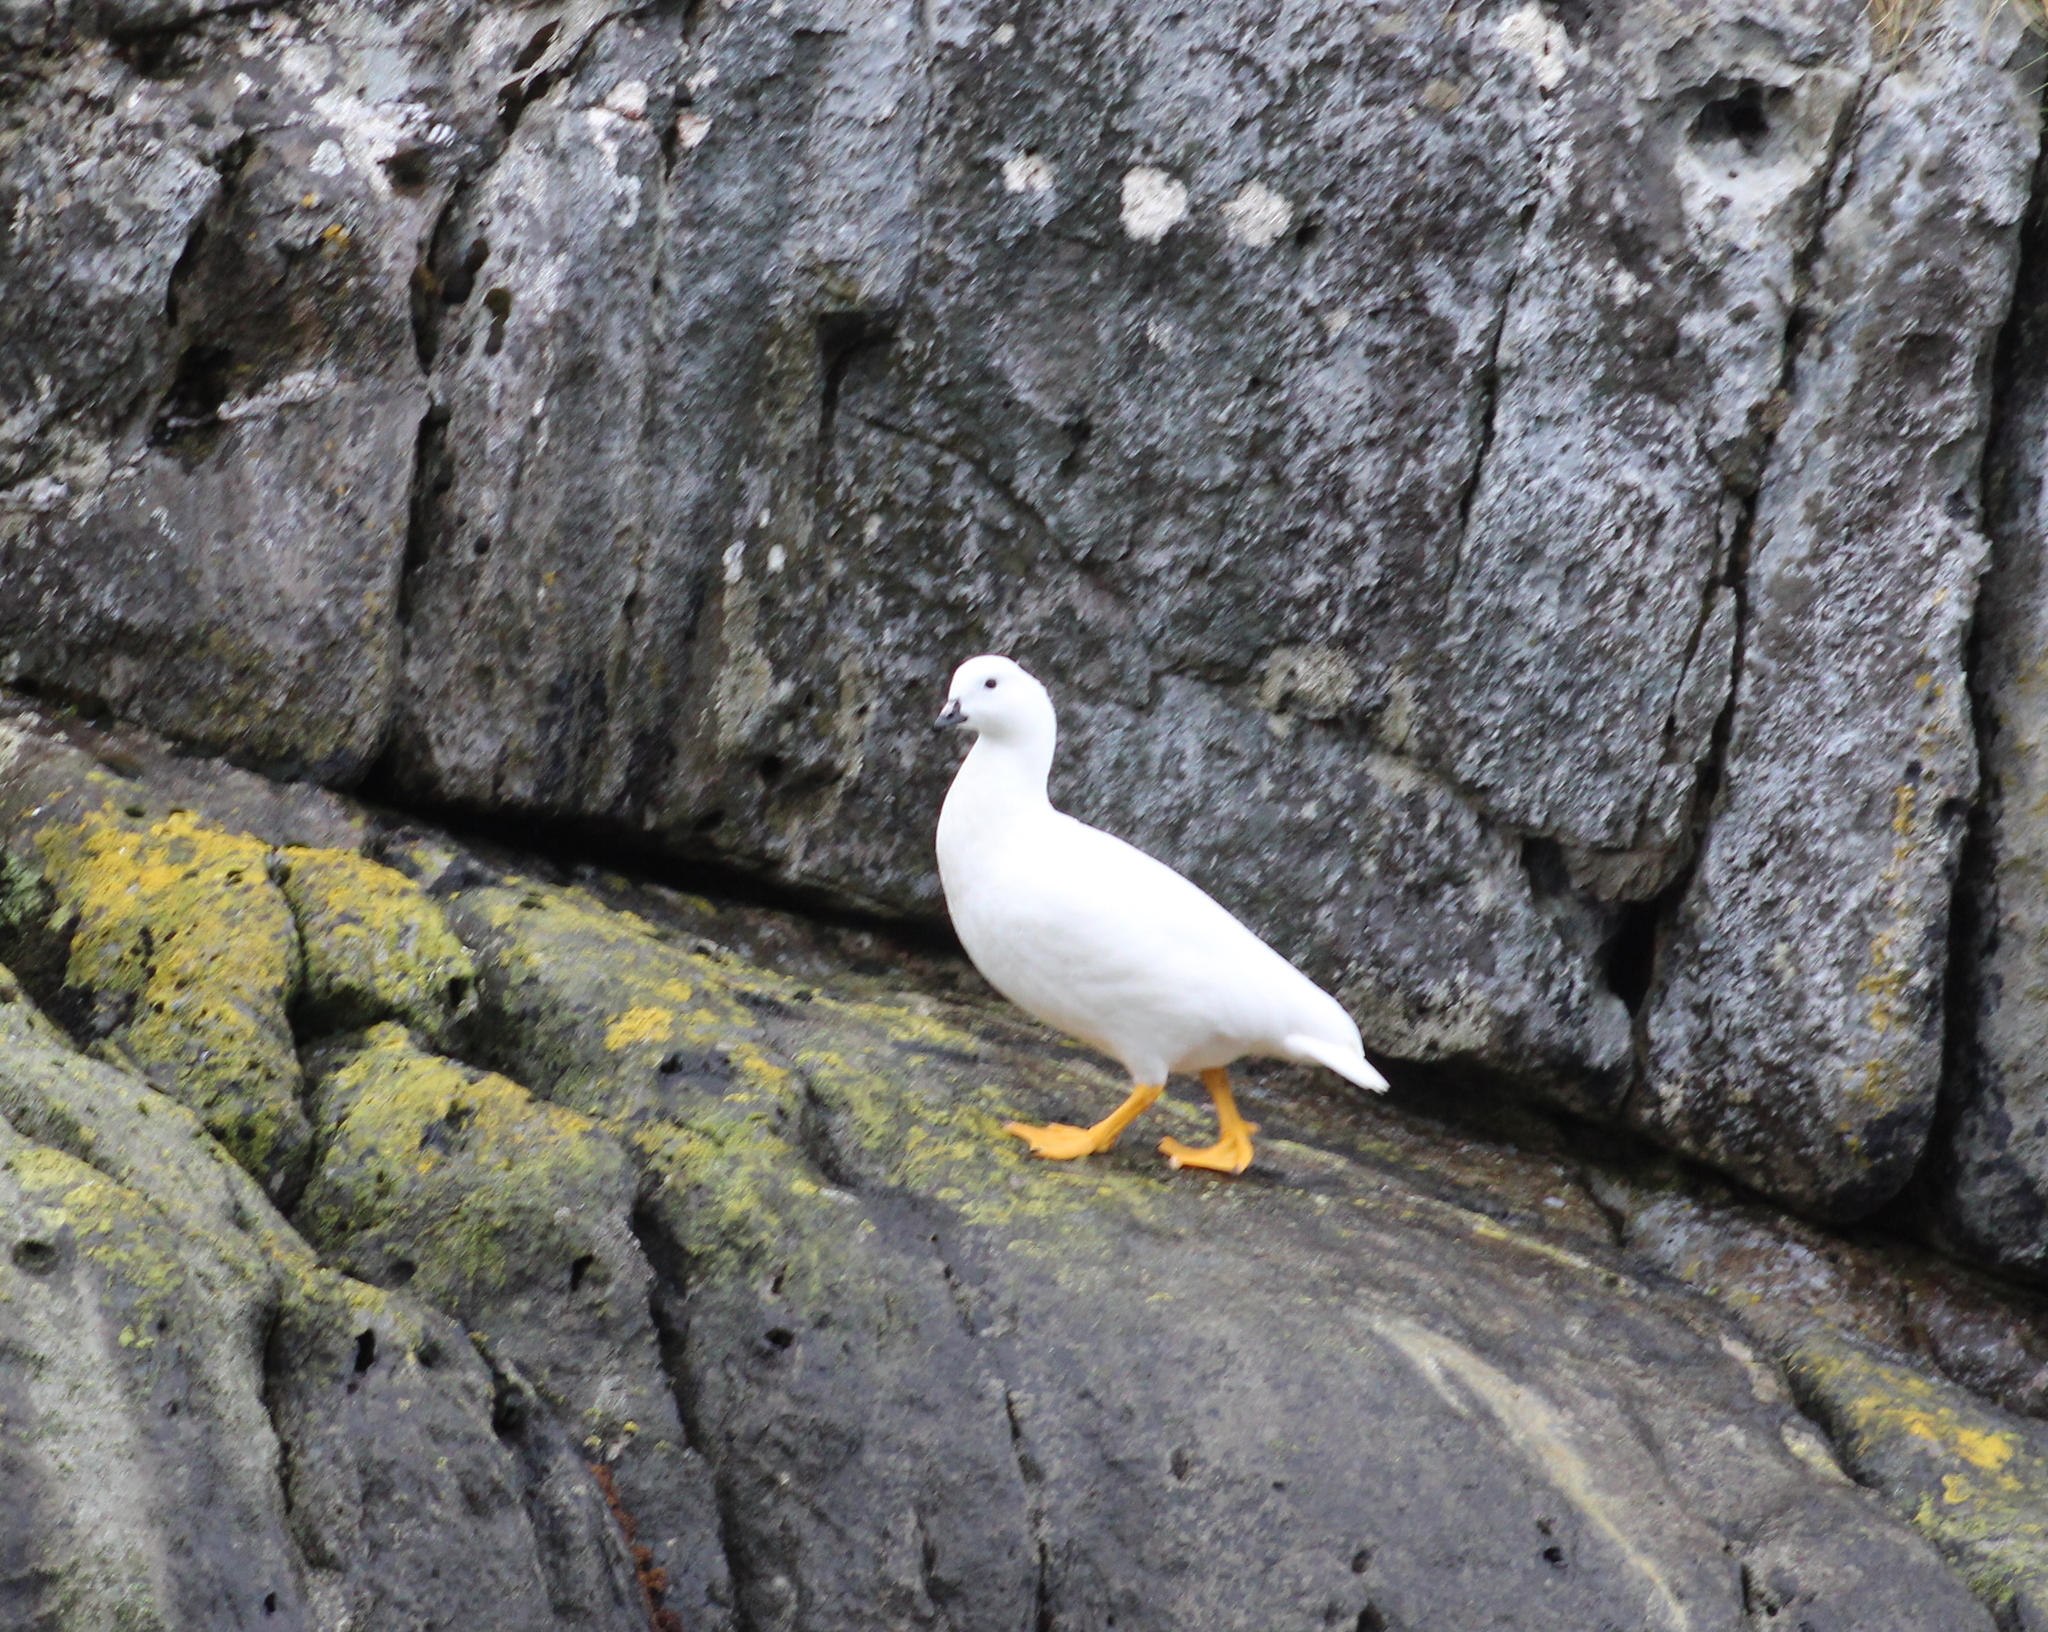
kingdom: Animalia
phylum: Chordata
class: Aves
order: Anseriformes
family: Anatidae
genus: Chloephaga
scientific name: Chloephaga hybrida
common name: Kelp goose
